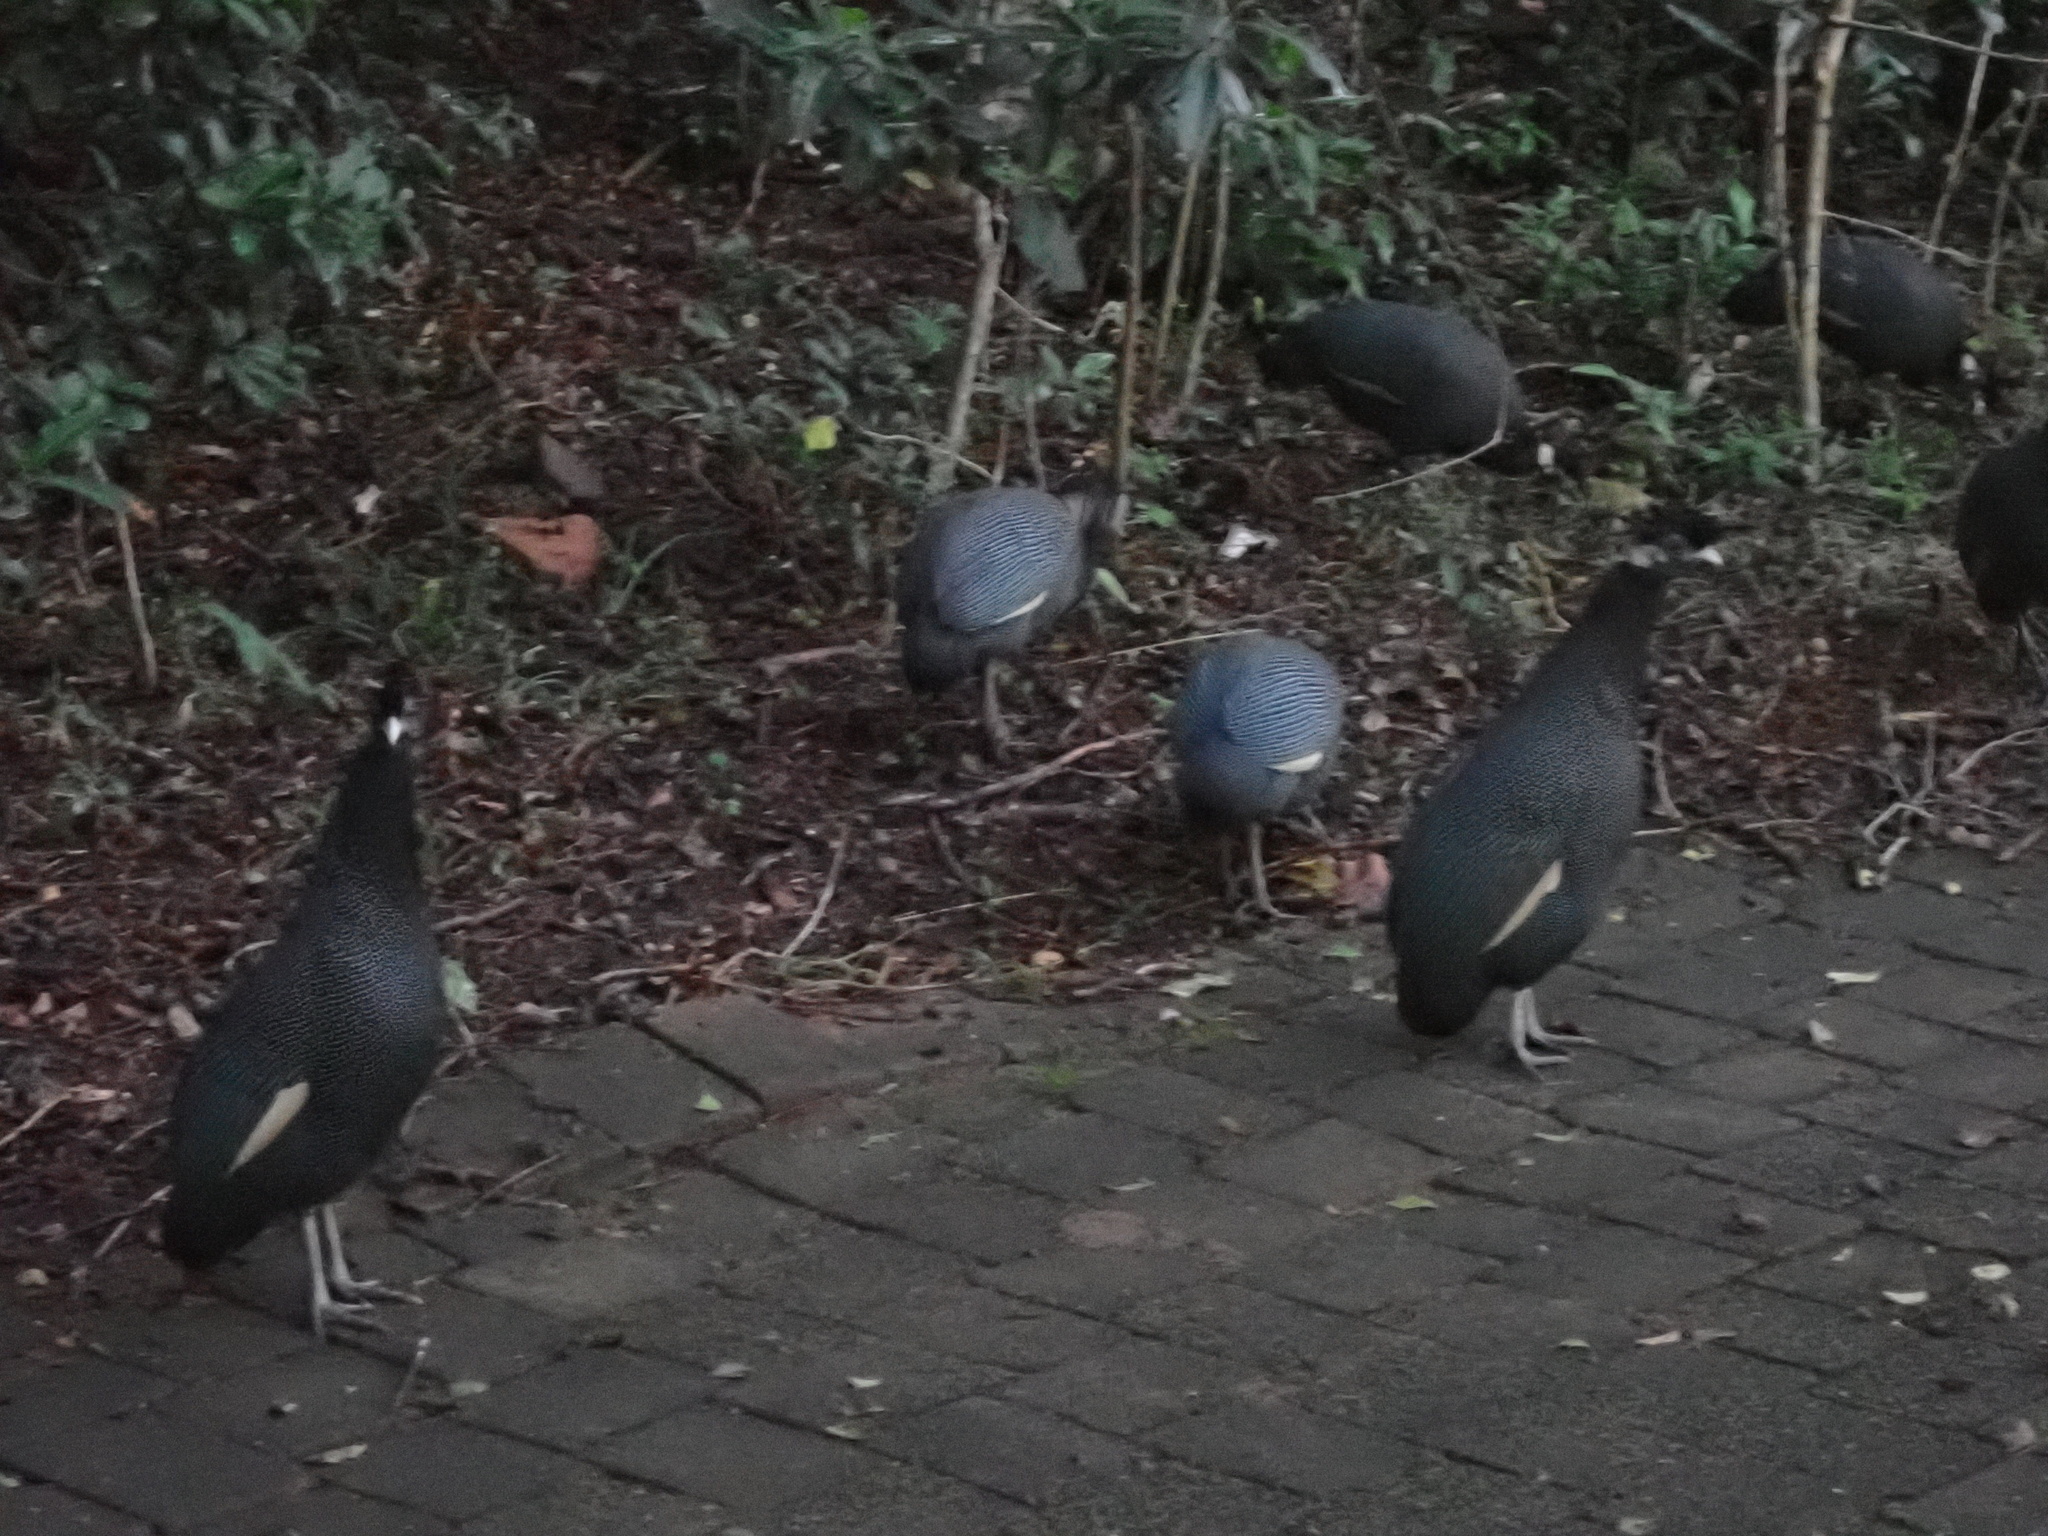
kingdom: Animalia
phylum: Chordata
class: Aves
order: Galliformes
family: Numididae
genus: Guttera
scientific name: Guttera pucherani
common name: Crested guineafowl
